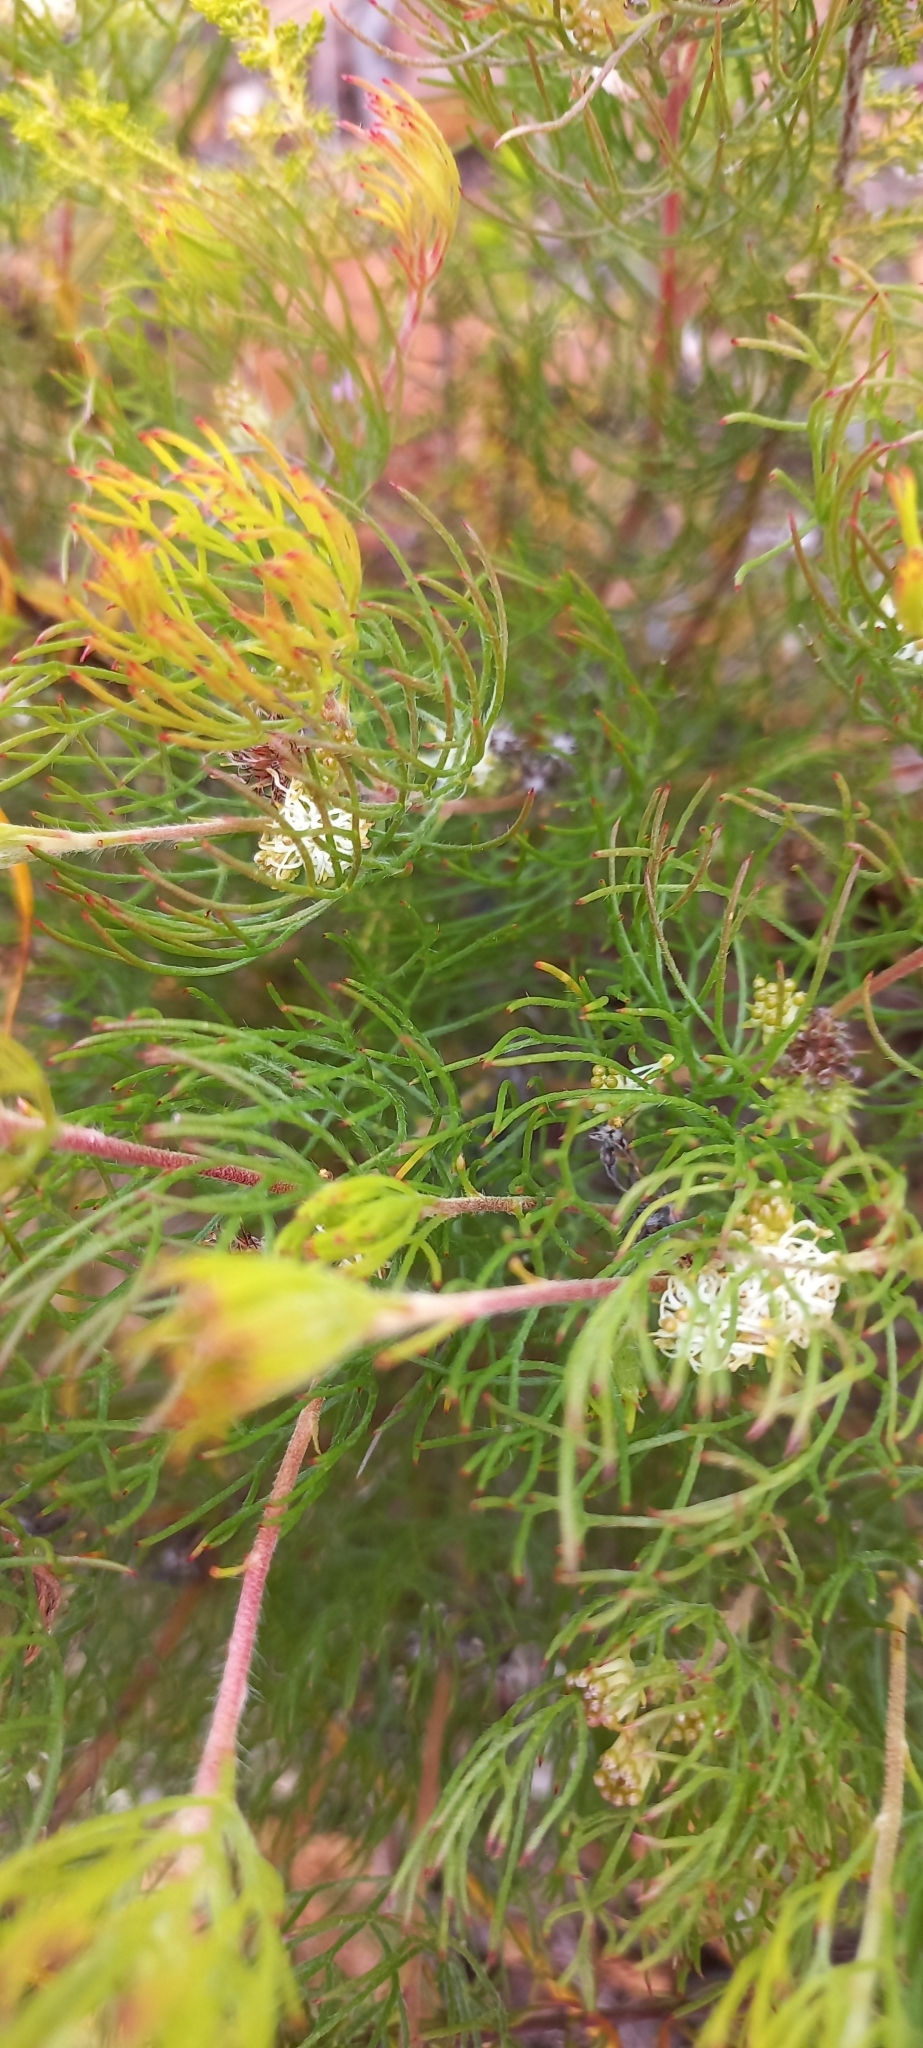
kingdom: Plantae
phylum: Tracheophyta
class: Magnoliopsida
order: Proteales
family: Proteaceae
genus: Serruria
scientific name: Serruria inconspicua
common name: Cryptic spiderhead
